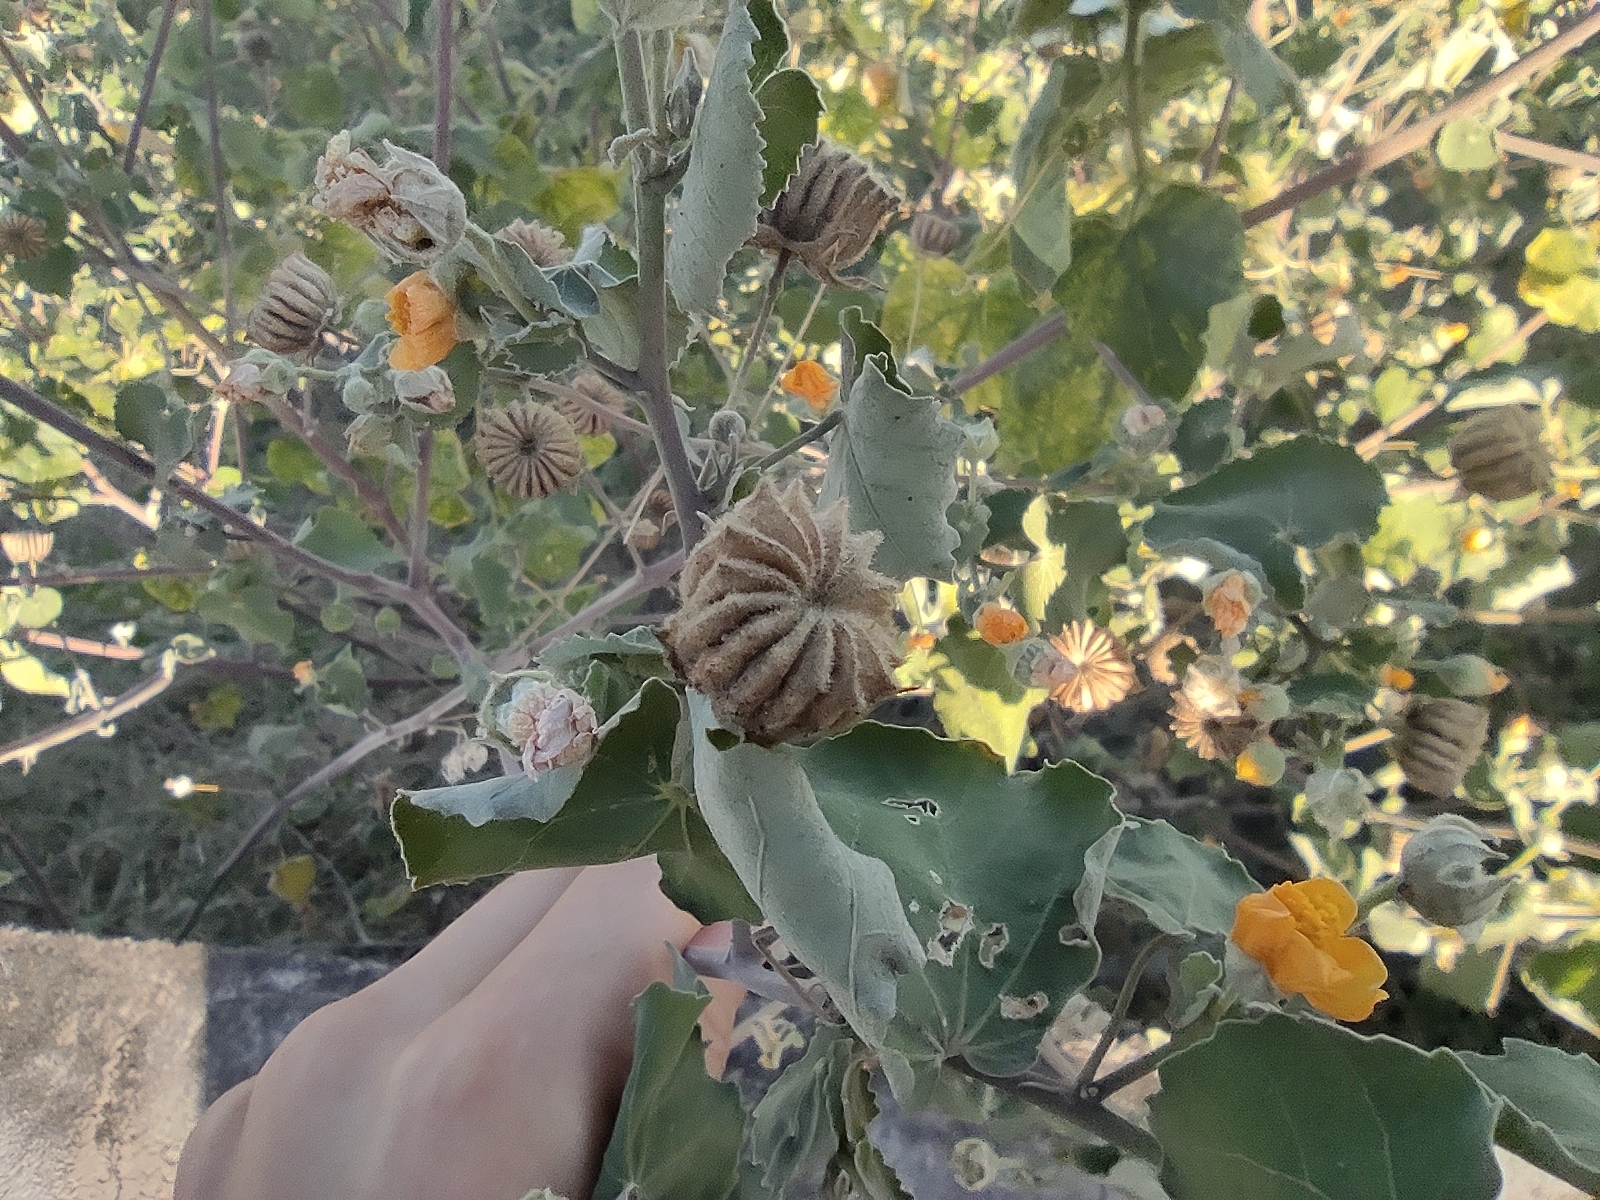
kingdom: Plantae
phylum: Tracheophyta
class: Magnoliopsida
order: Malvales
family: Malvaceae
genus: Abutilon
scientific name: Abutilon indicum
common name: Indian abutilon
